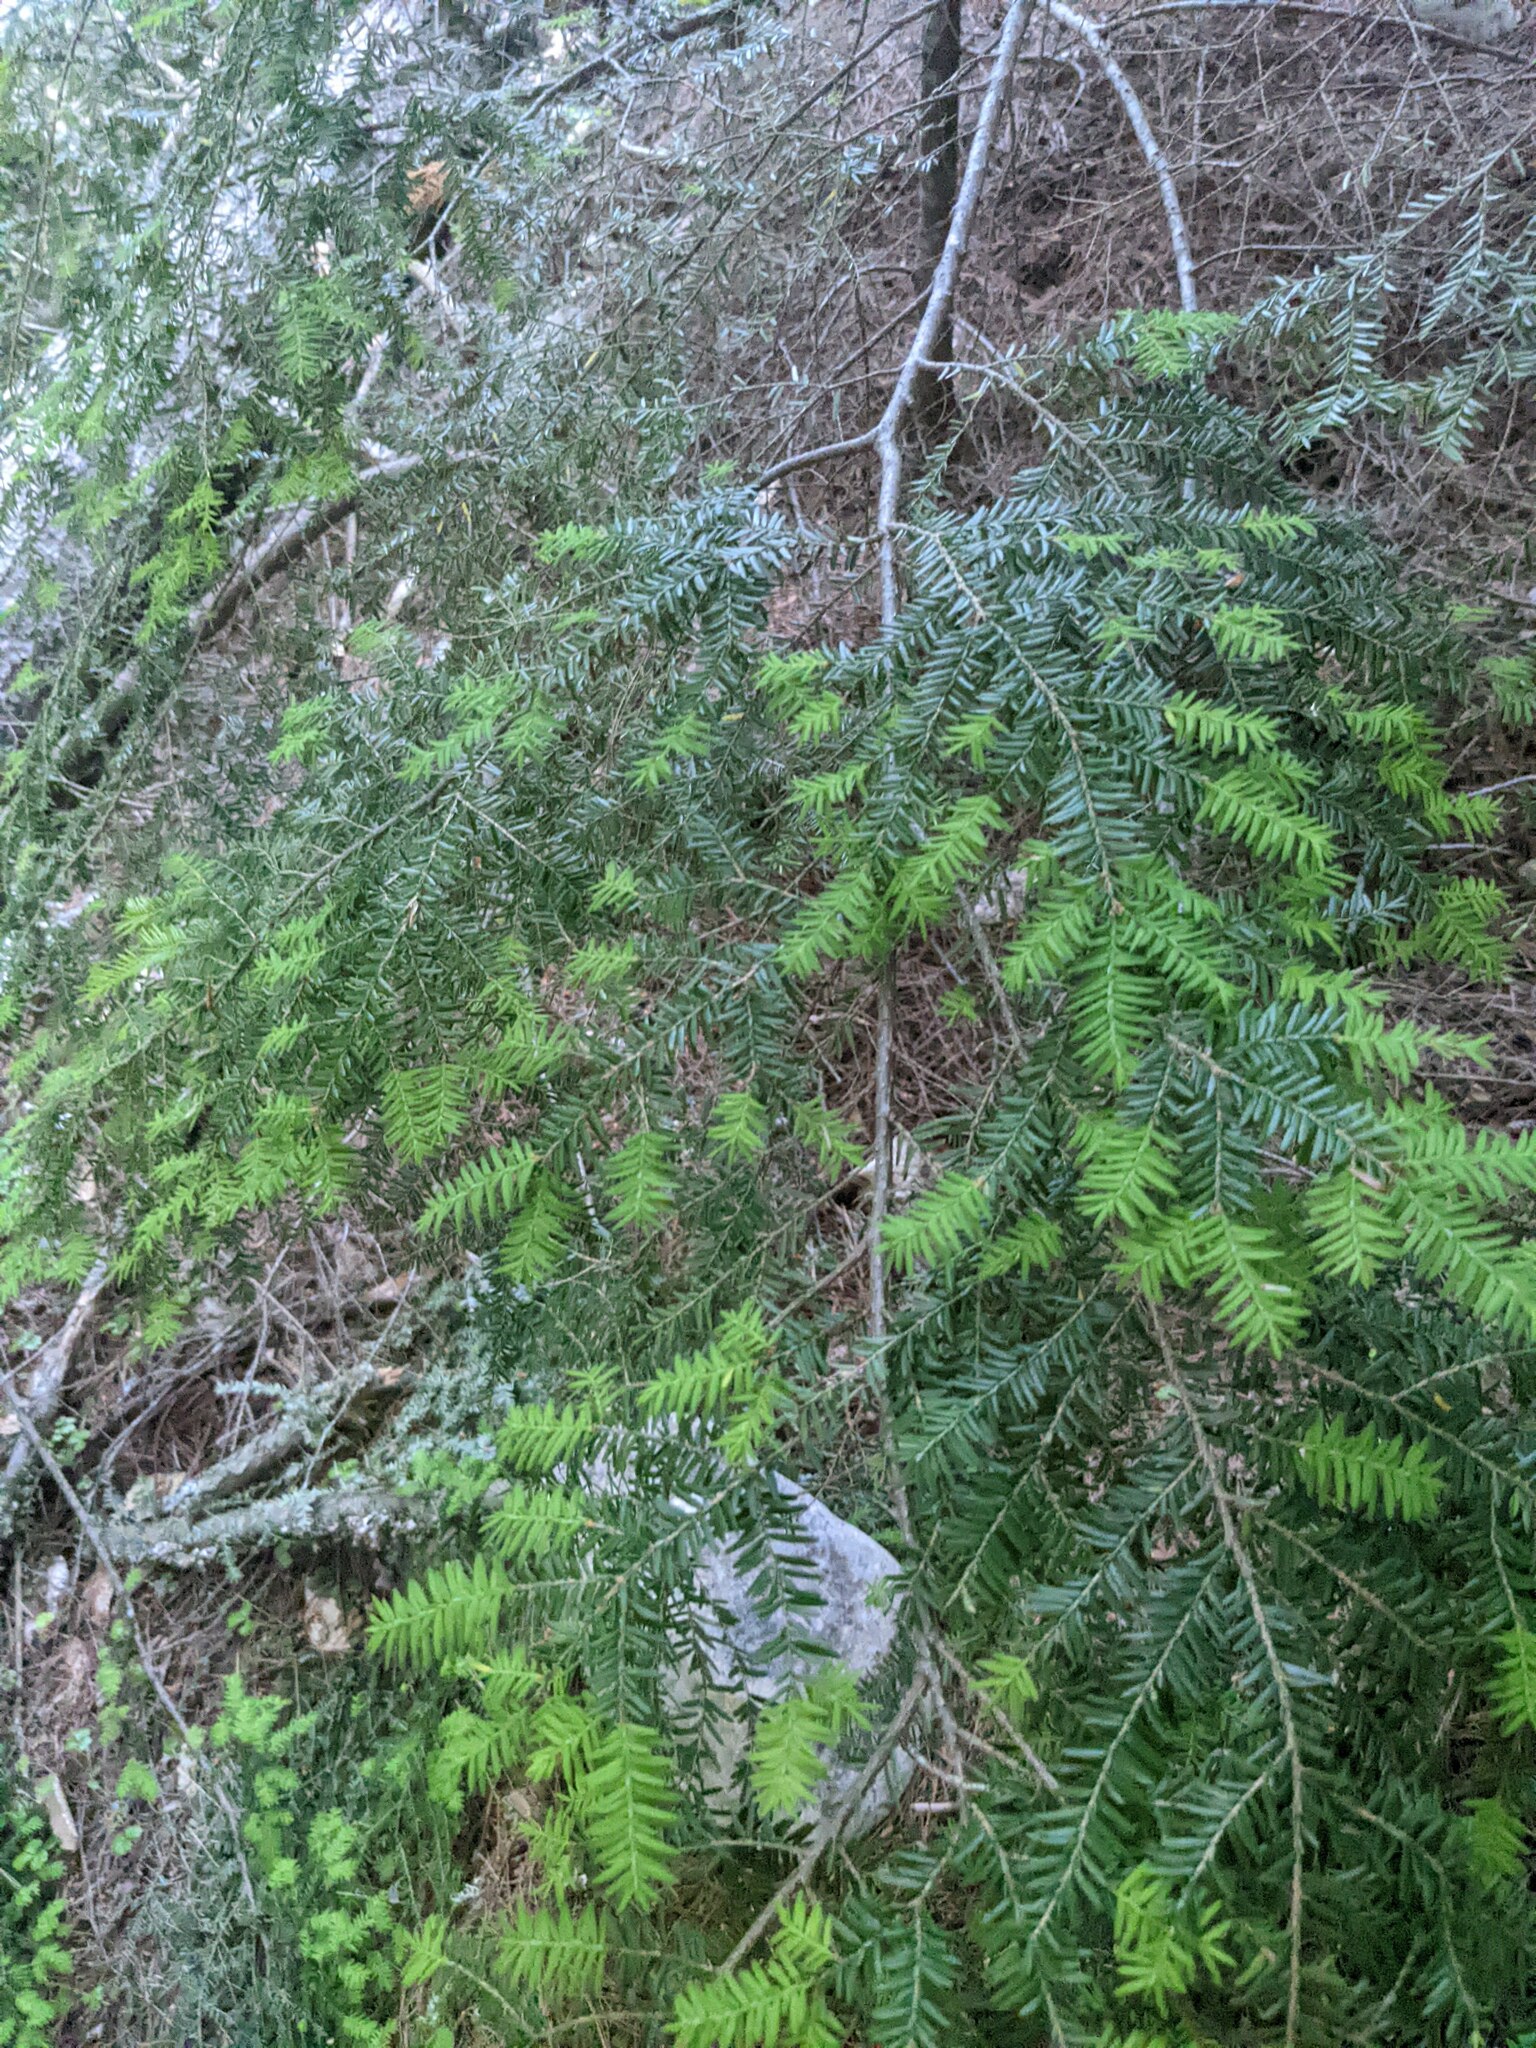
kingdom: Plantae
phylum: Tracheophyta
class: Pinopsida
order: Pinales
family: Pinaceae
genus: Tsuga
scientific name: Tsuga canadensis
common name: Eastern hemlock
